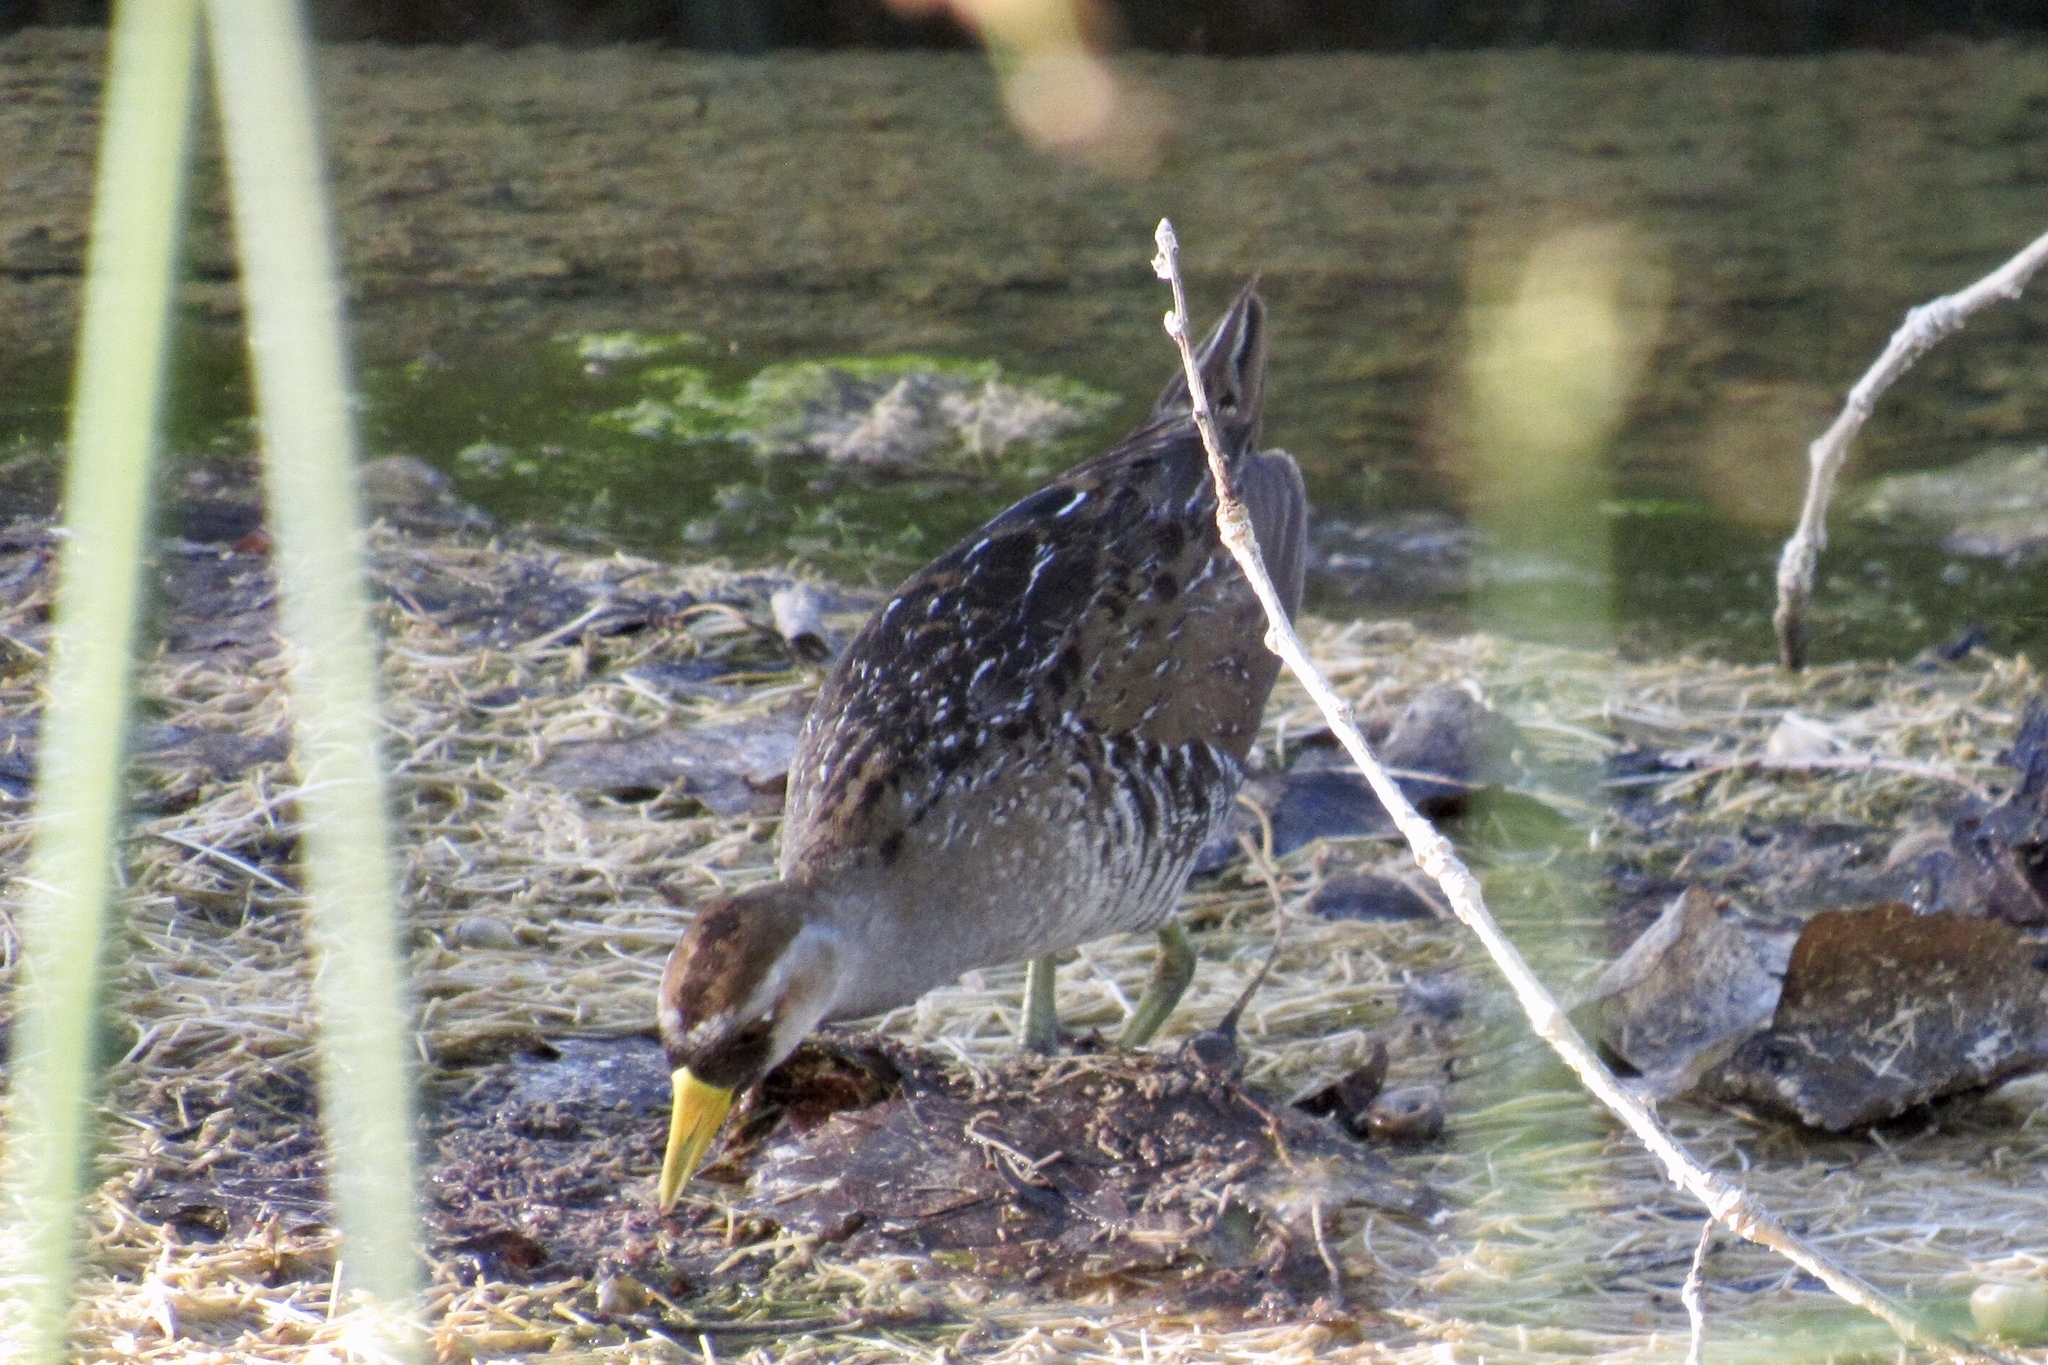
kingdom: Animalia
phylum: Chordata
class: Aves
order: Gruiformes
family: Rallidae
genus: Porzana
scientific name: Porzana carolina
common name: Sora
